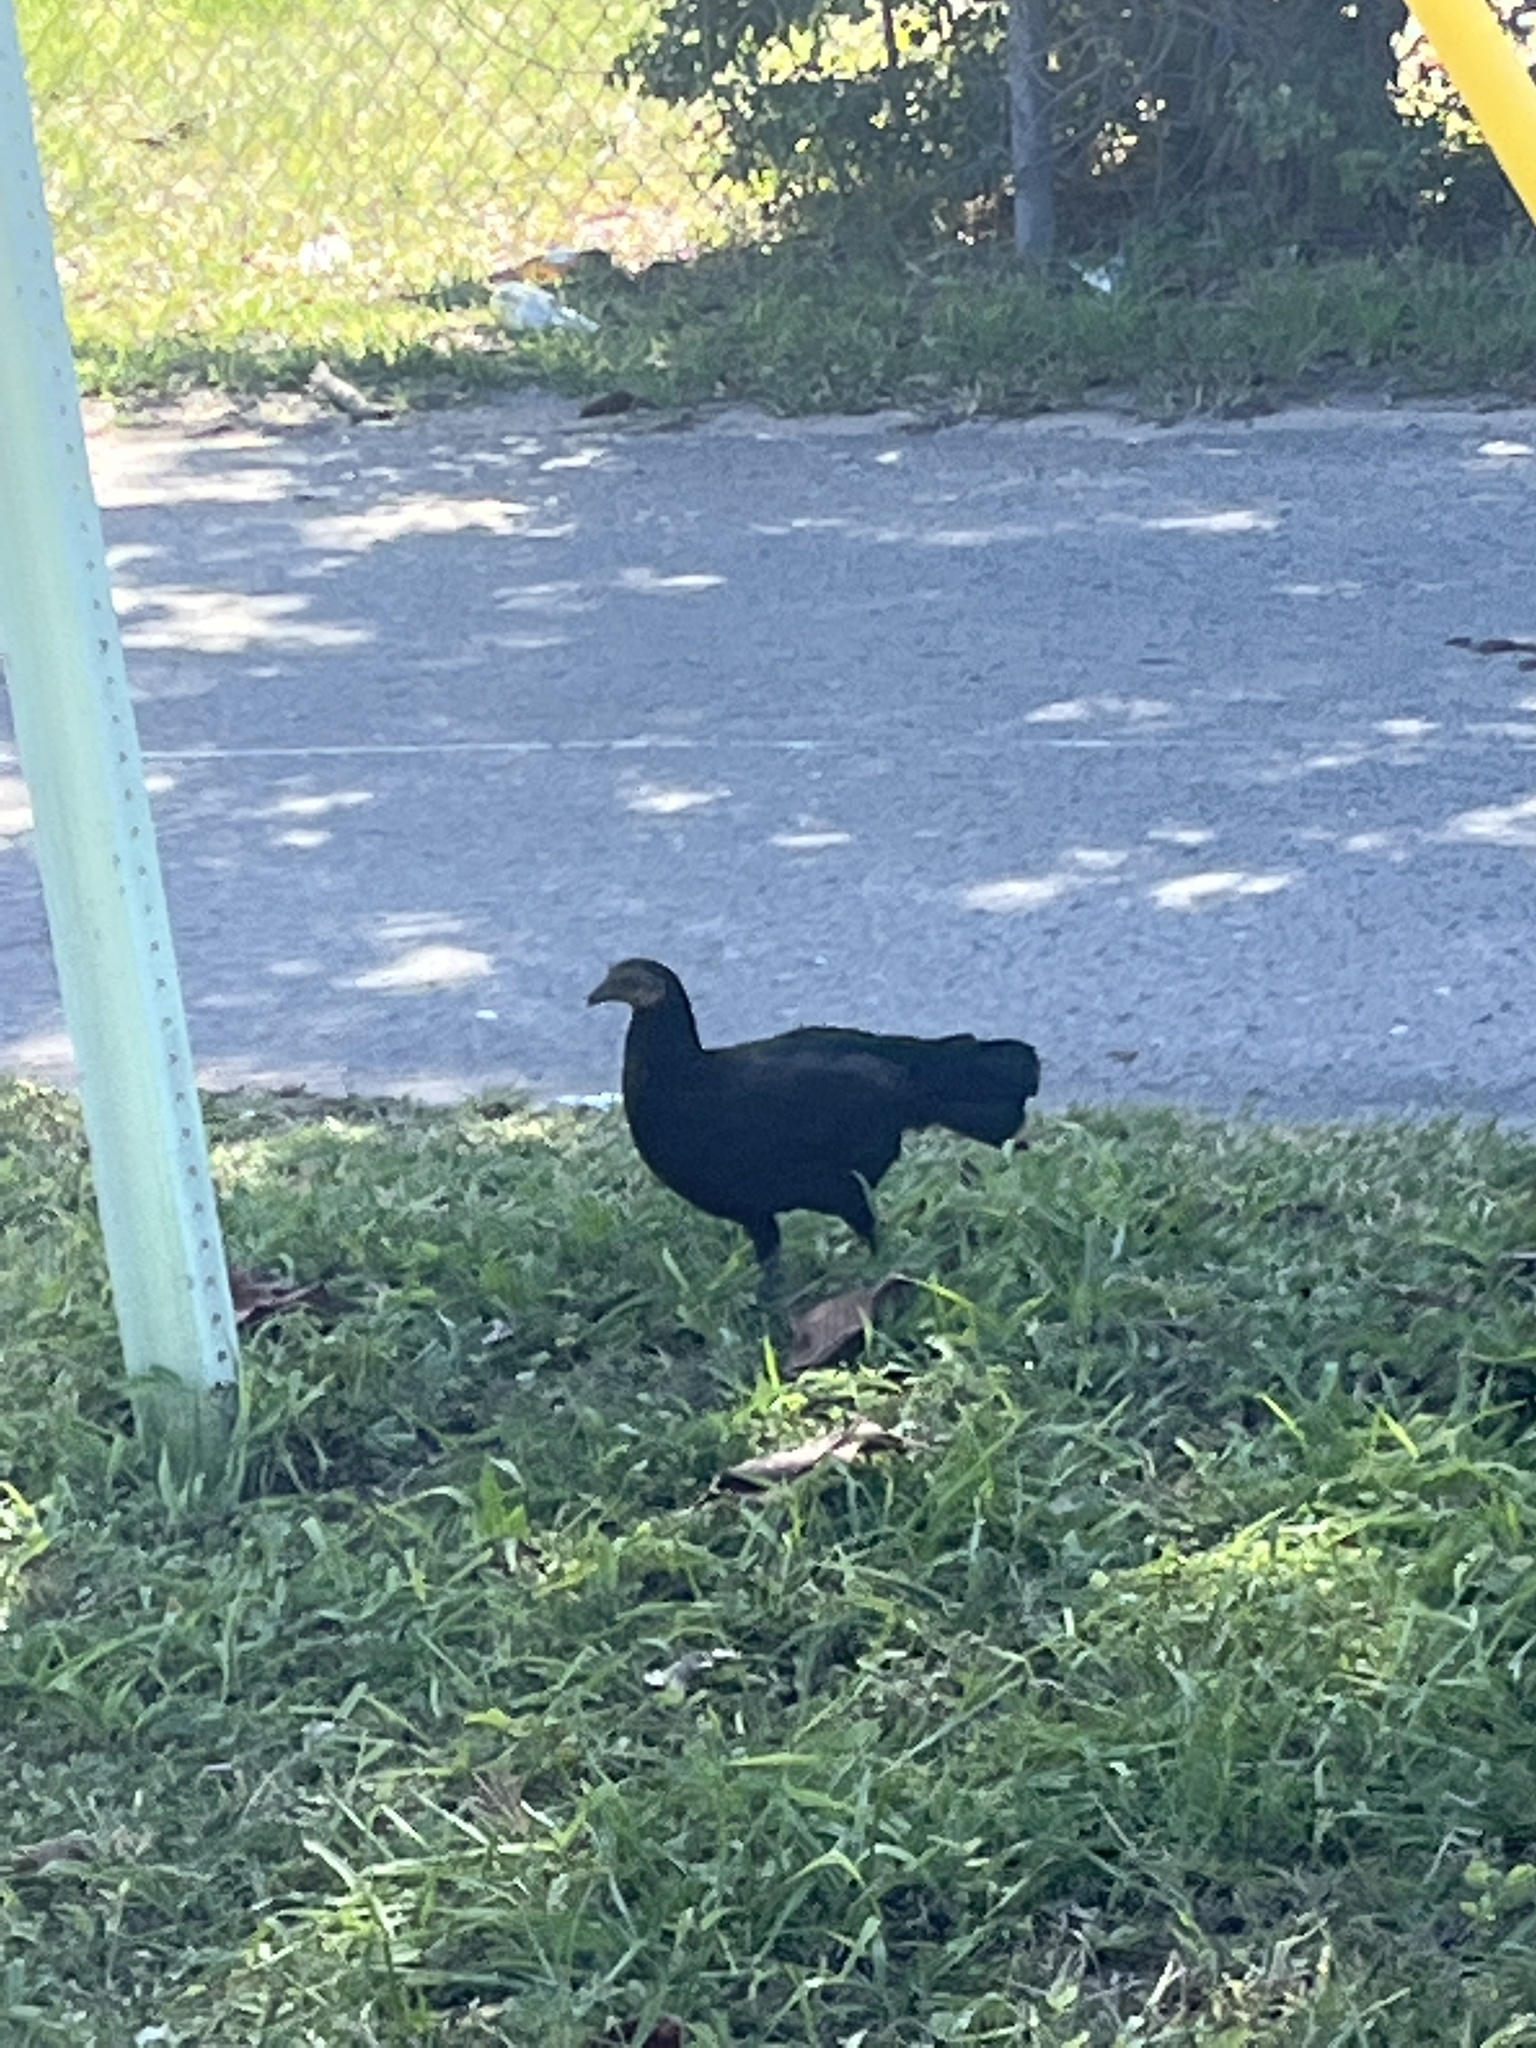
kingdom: Animalia
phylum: Chordata
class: Aves
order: Galliformes
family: Phasianidae
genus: Gallus
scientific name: Gallus gallus
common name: Red junglefowl
